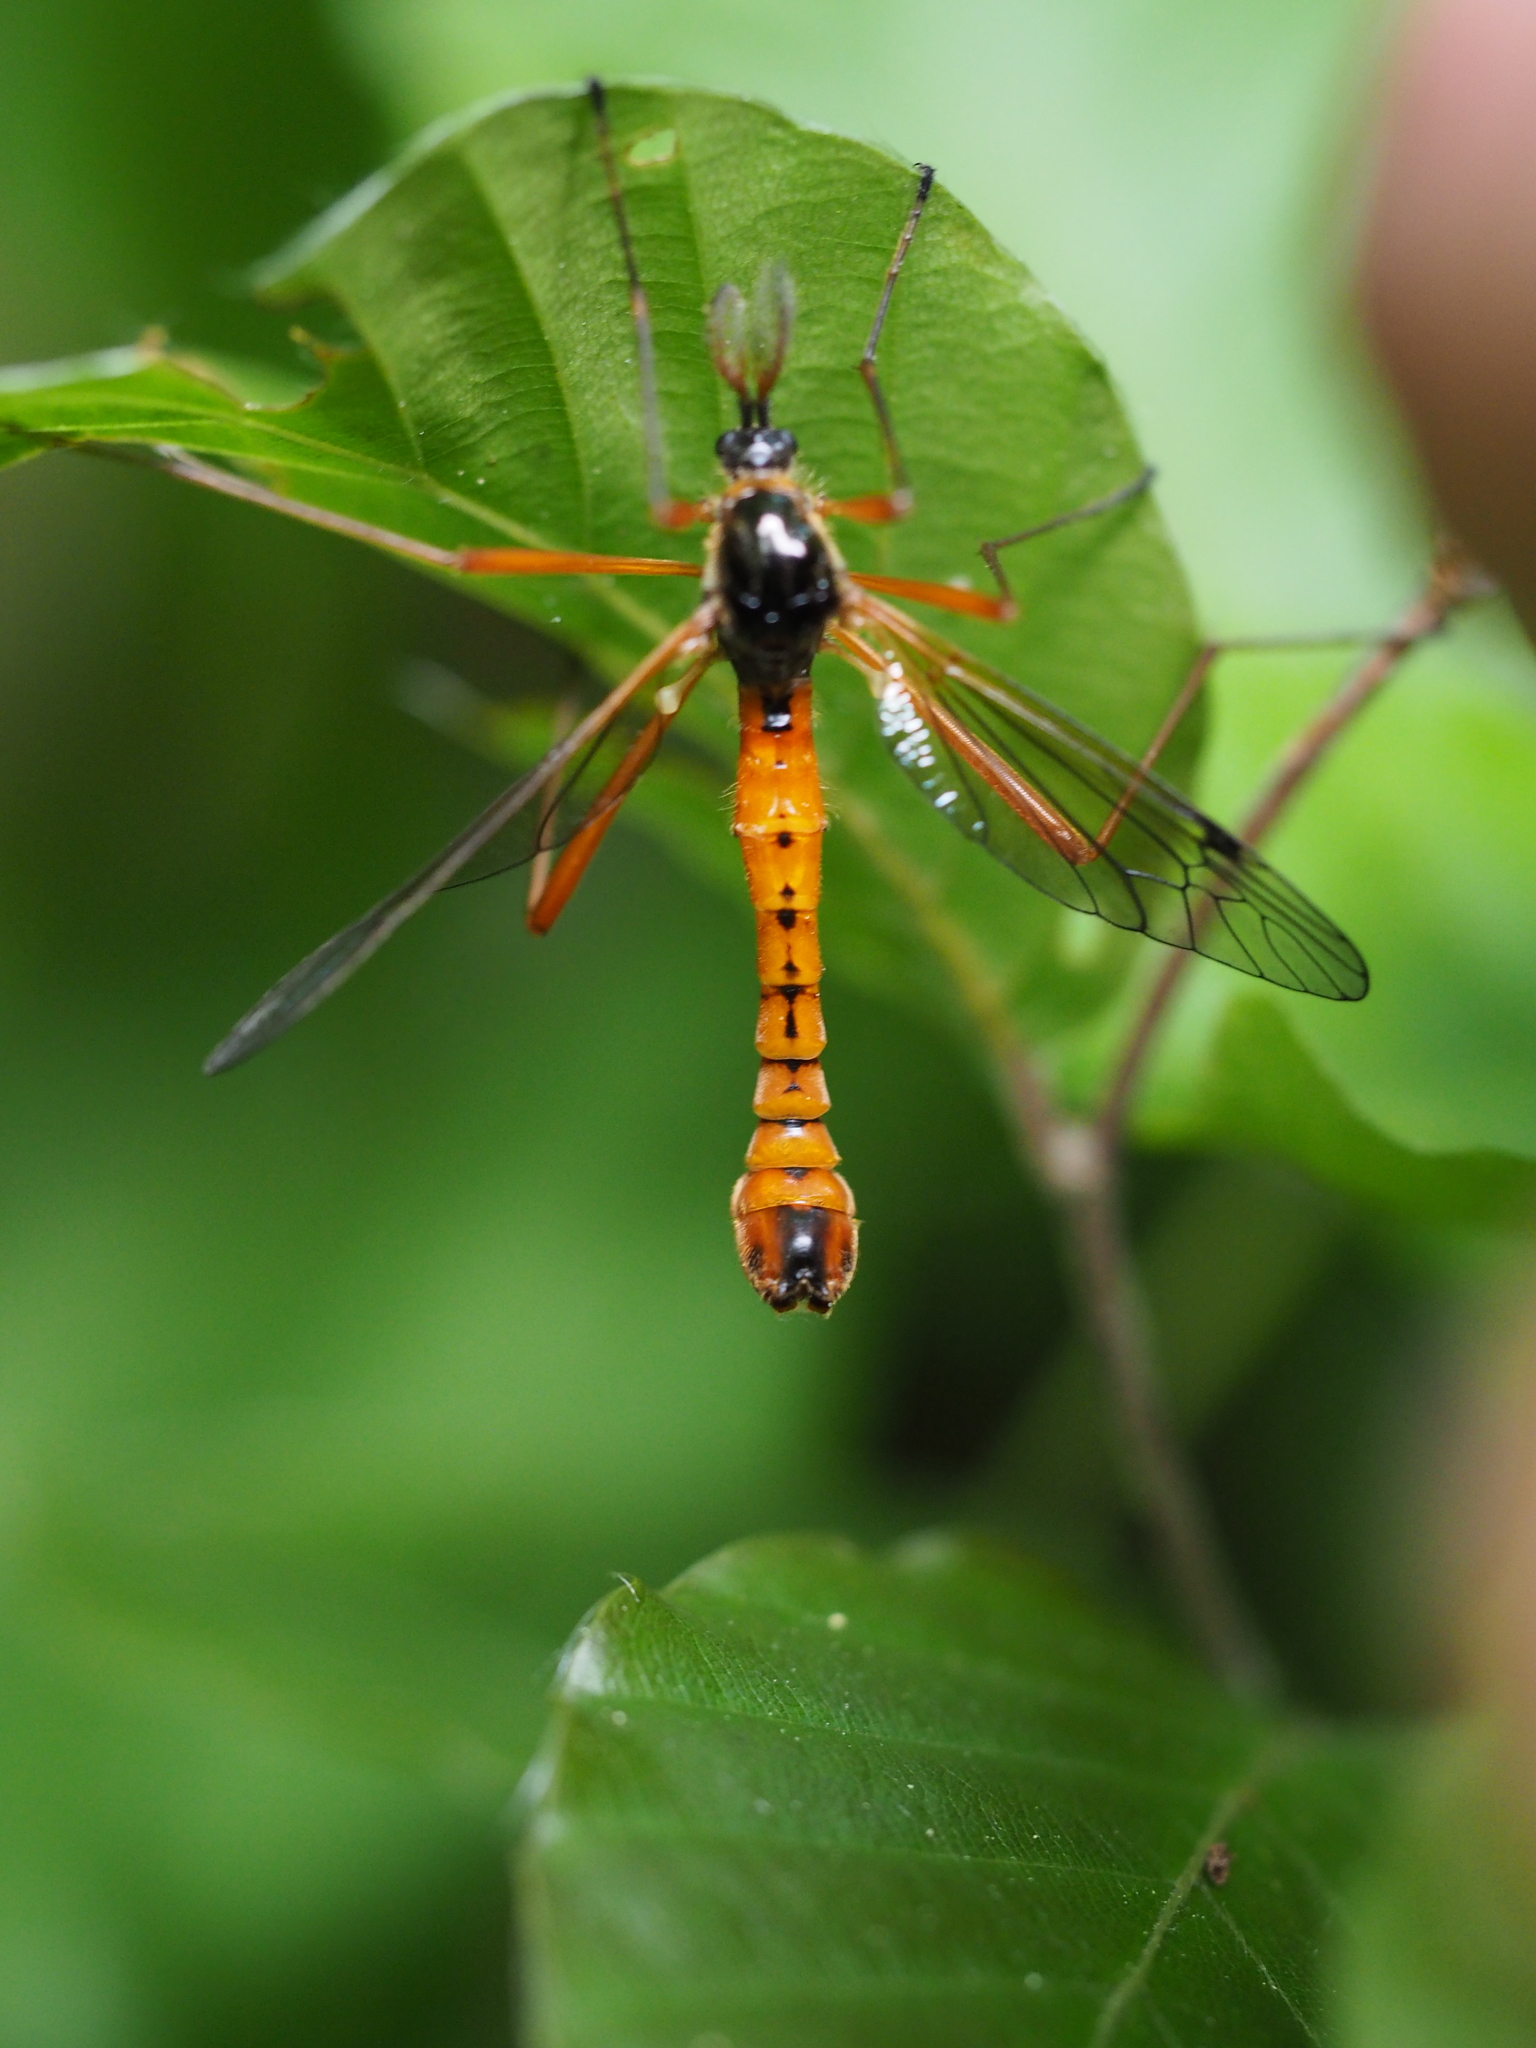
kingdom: Animalia
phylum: Arthropoda
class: Insecta
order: Diptera
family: Tipulidae
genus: Tanyptera
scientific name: Tanyptera atrata
